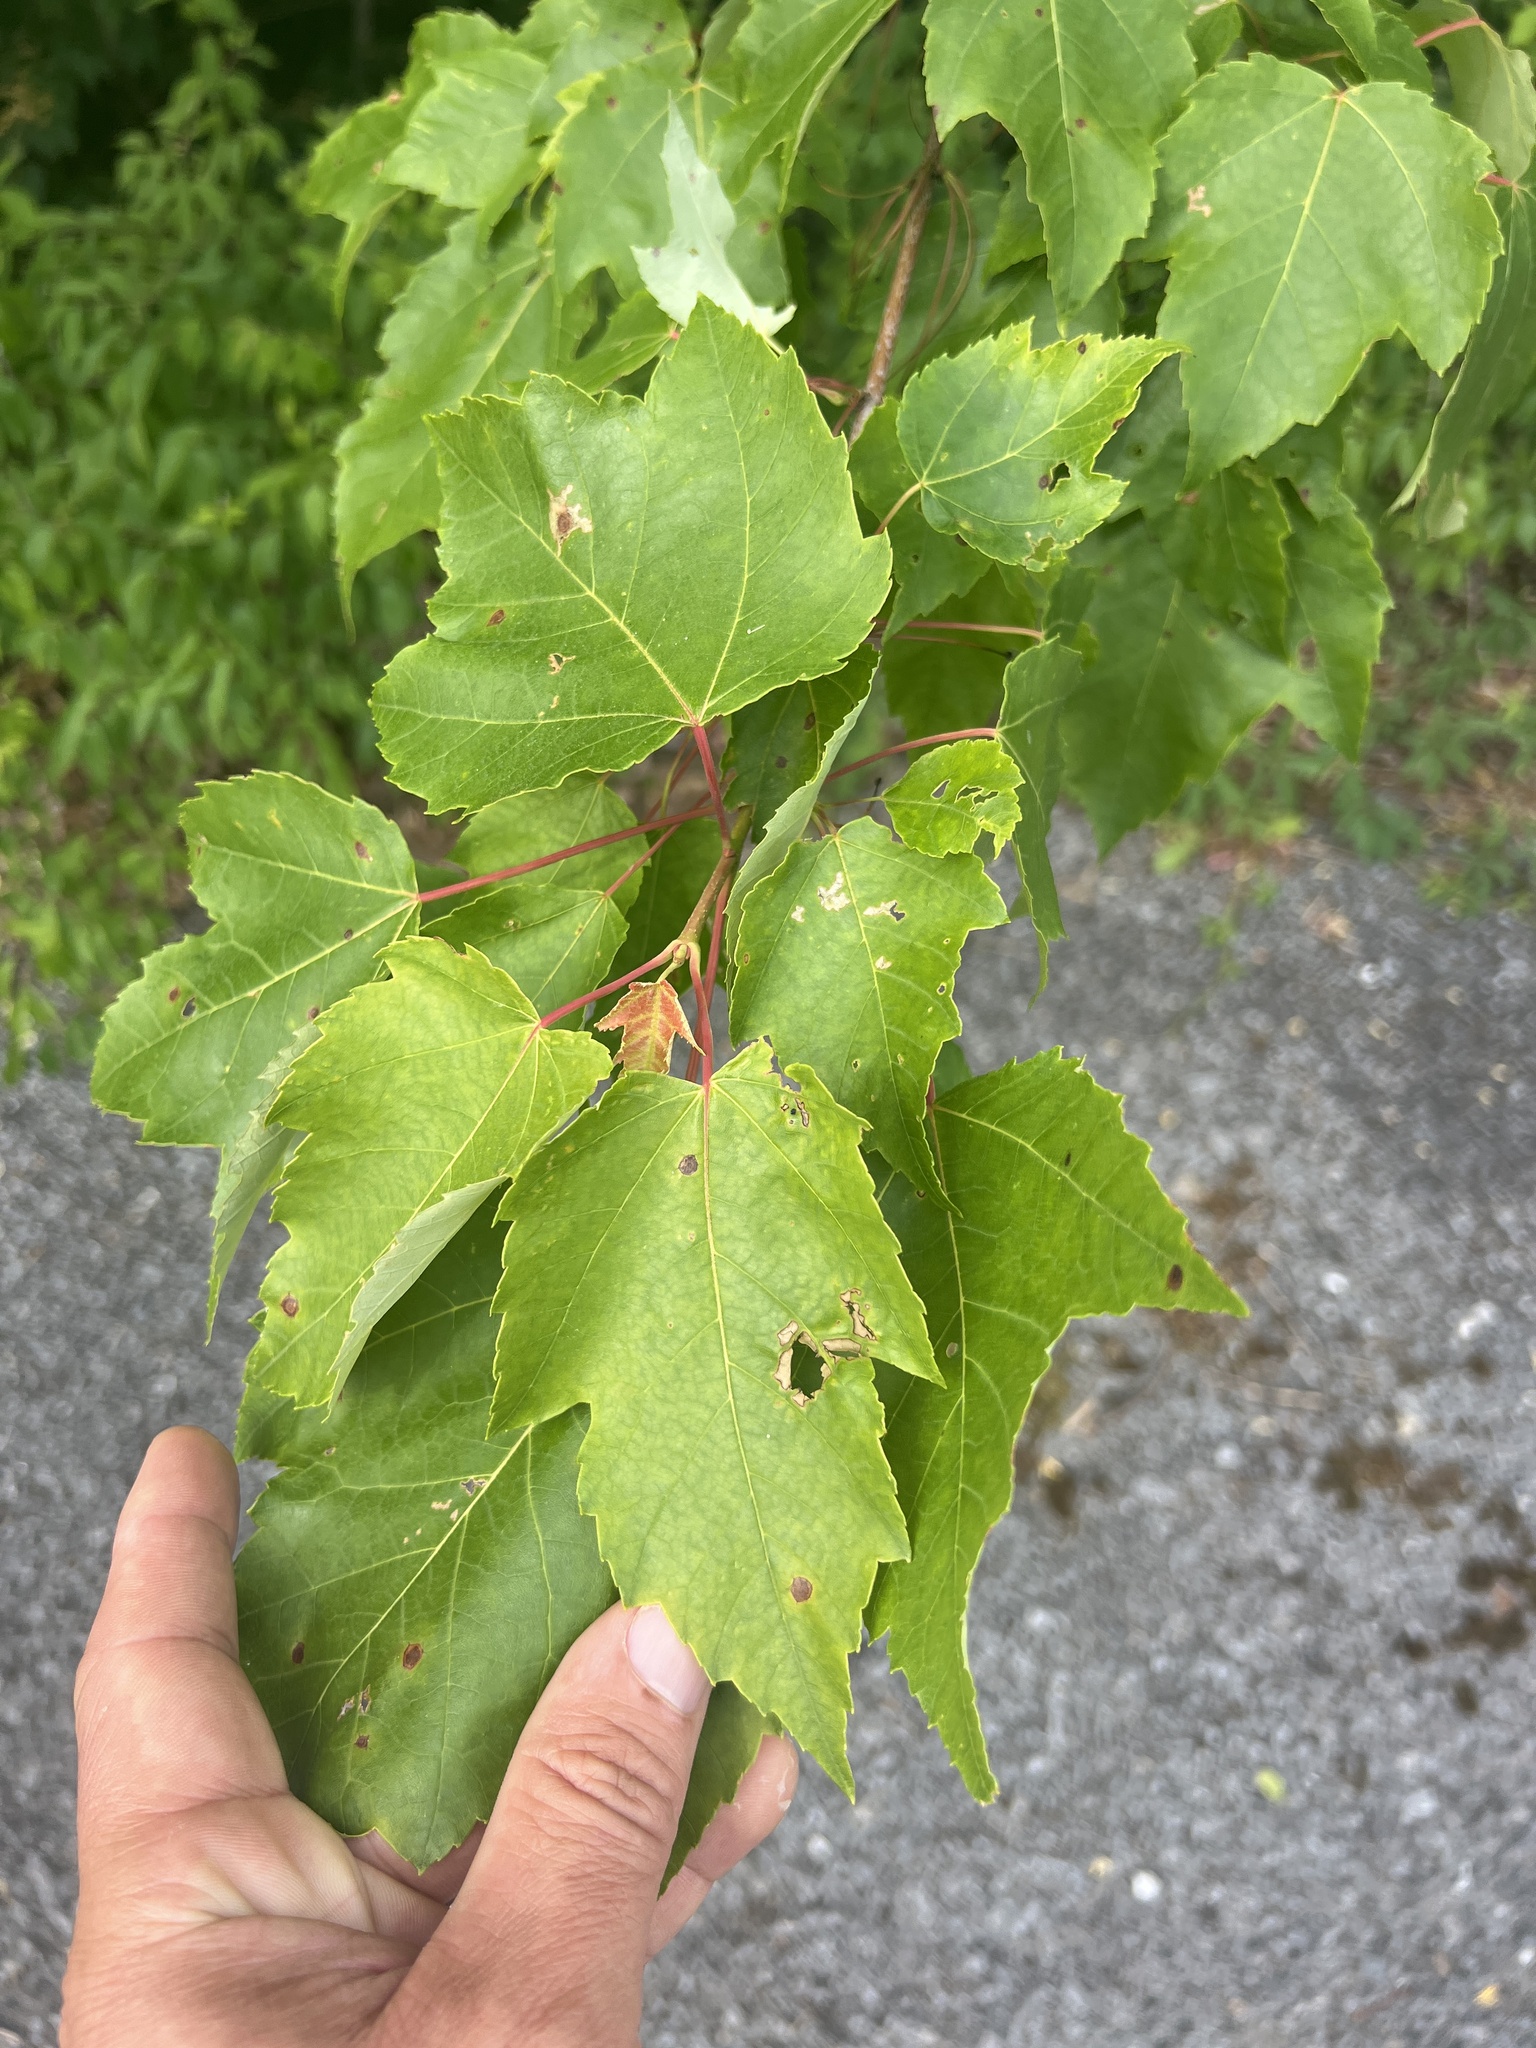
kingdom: Plantae
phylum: Tracheophyta
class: Magnoliopsida
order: Sapindales
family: Sapindaceae
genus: Acer
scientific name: Acer rubrum
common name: Red maple
